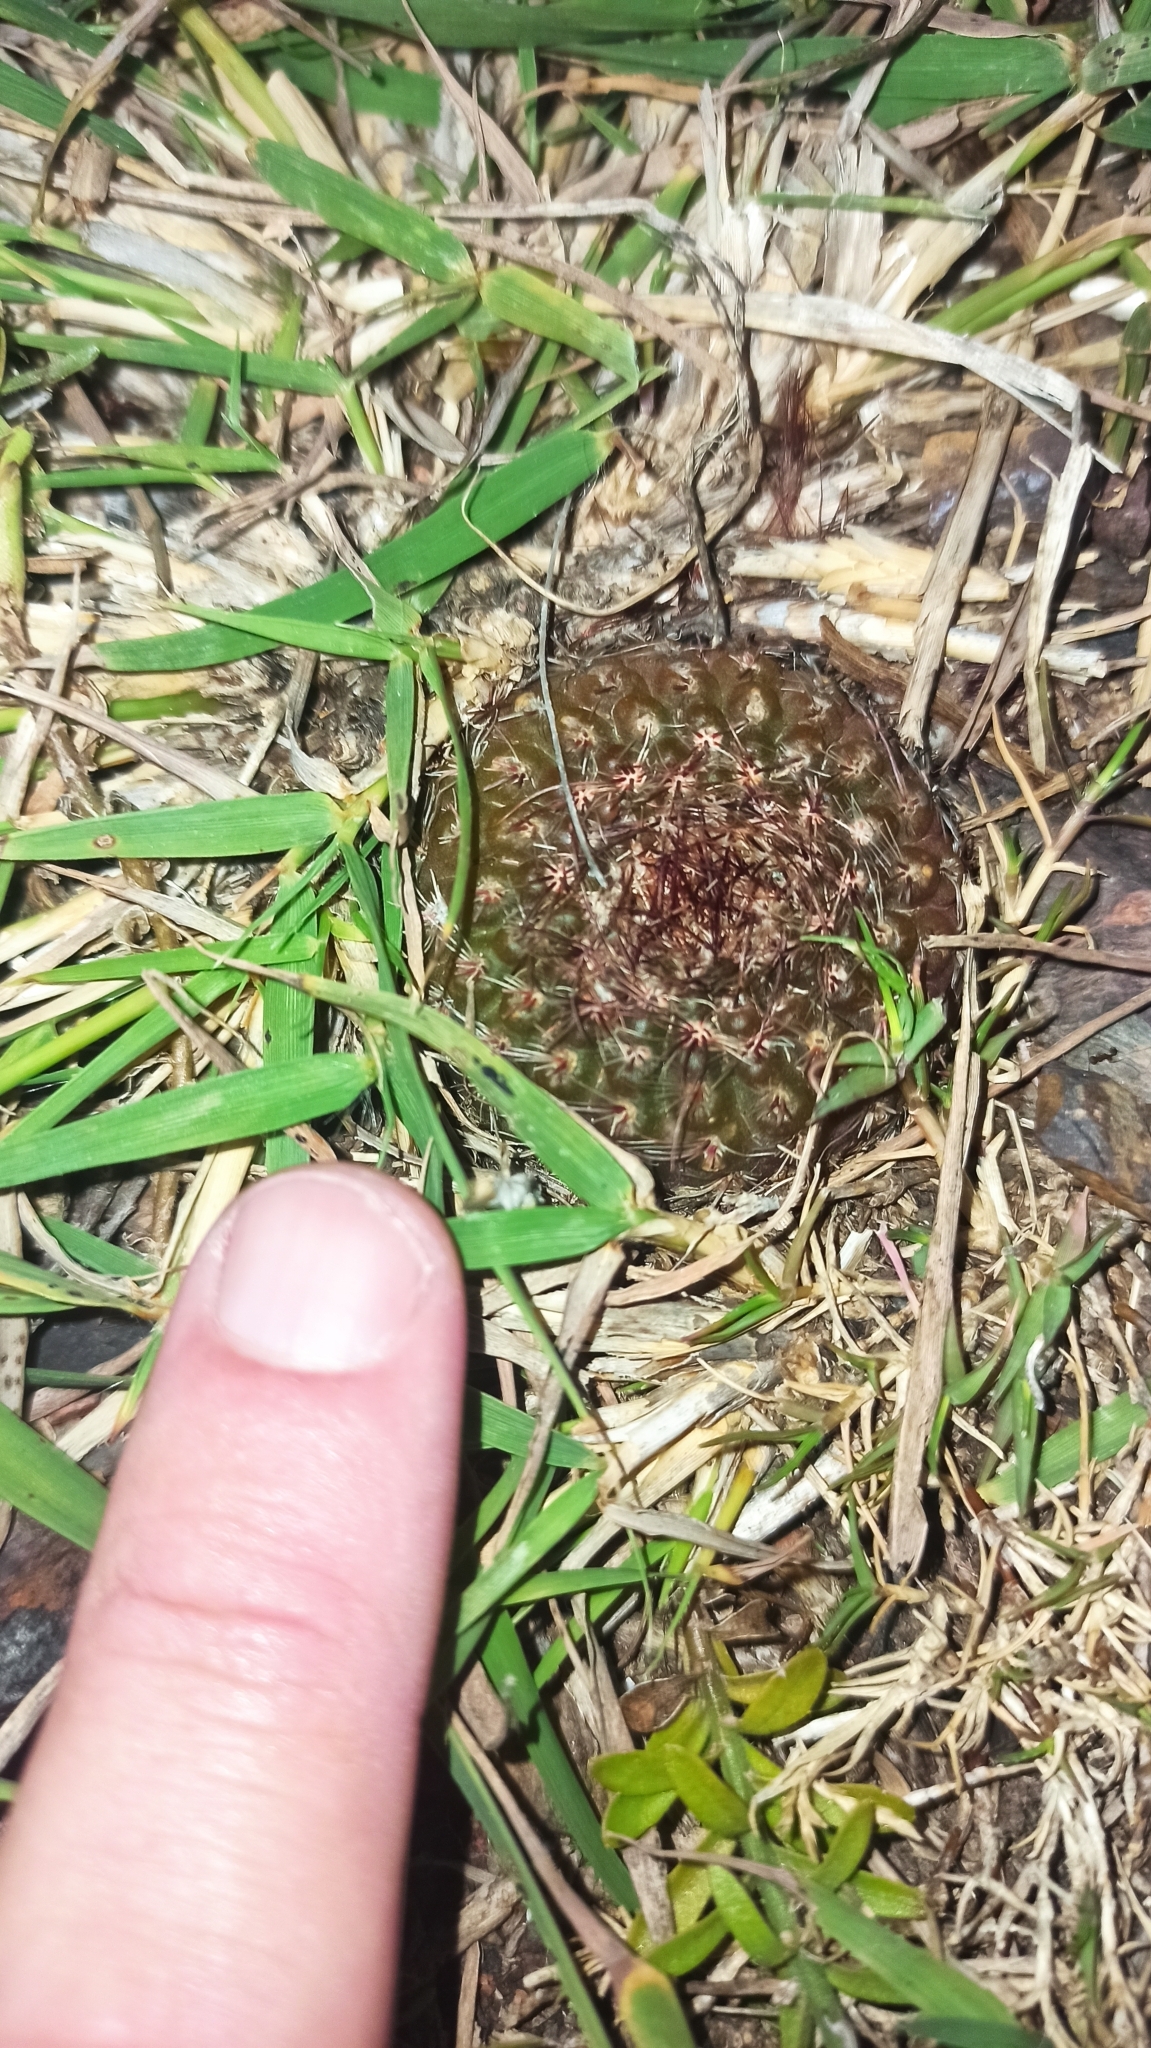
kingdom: Plantae
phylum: Tracheophyta
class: Magnoliopsida
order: Caryophyllales
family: Cactaceae
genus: Parodia
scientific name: Parodia concinna
